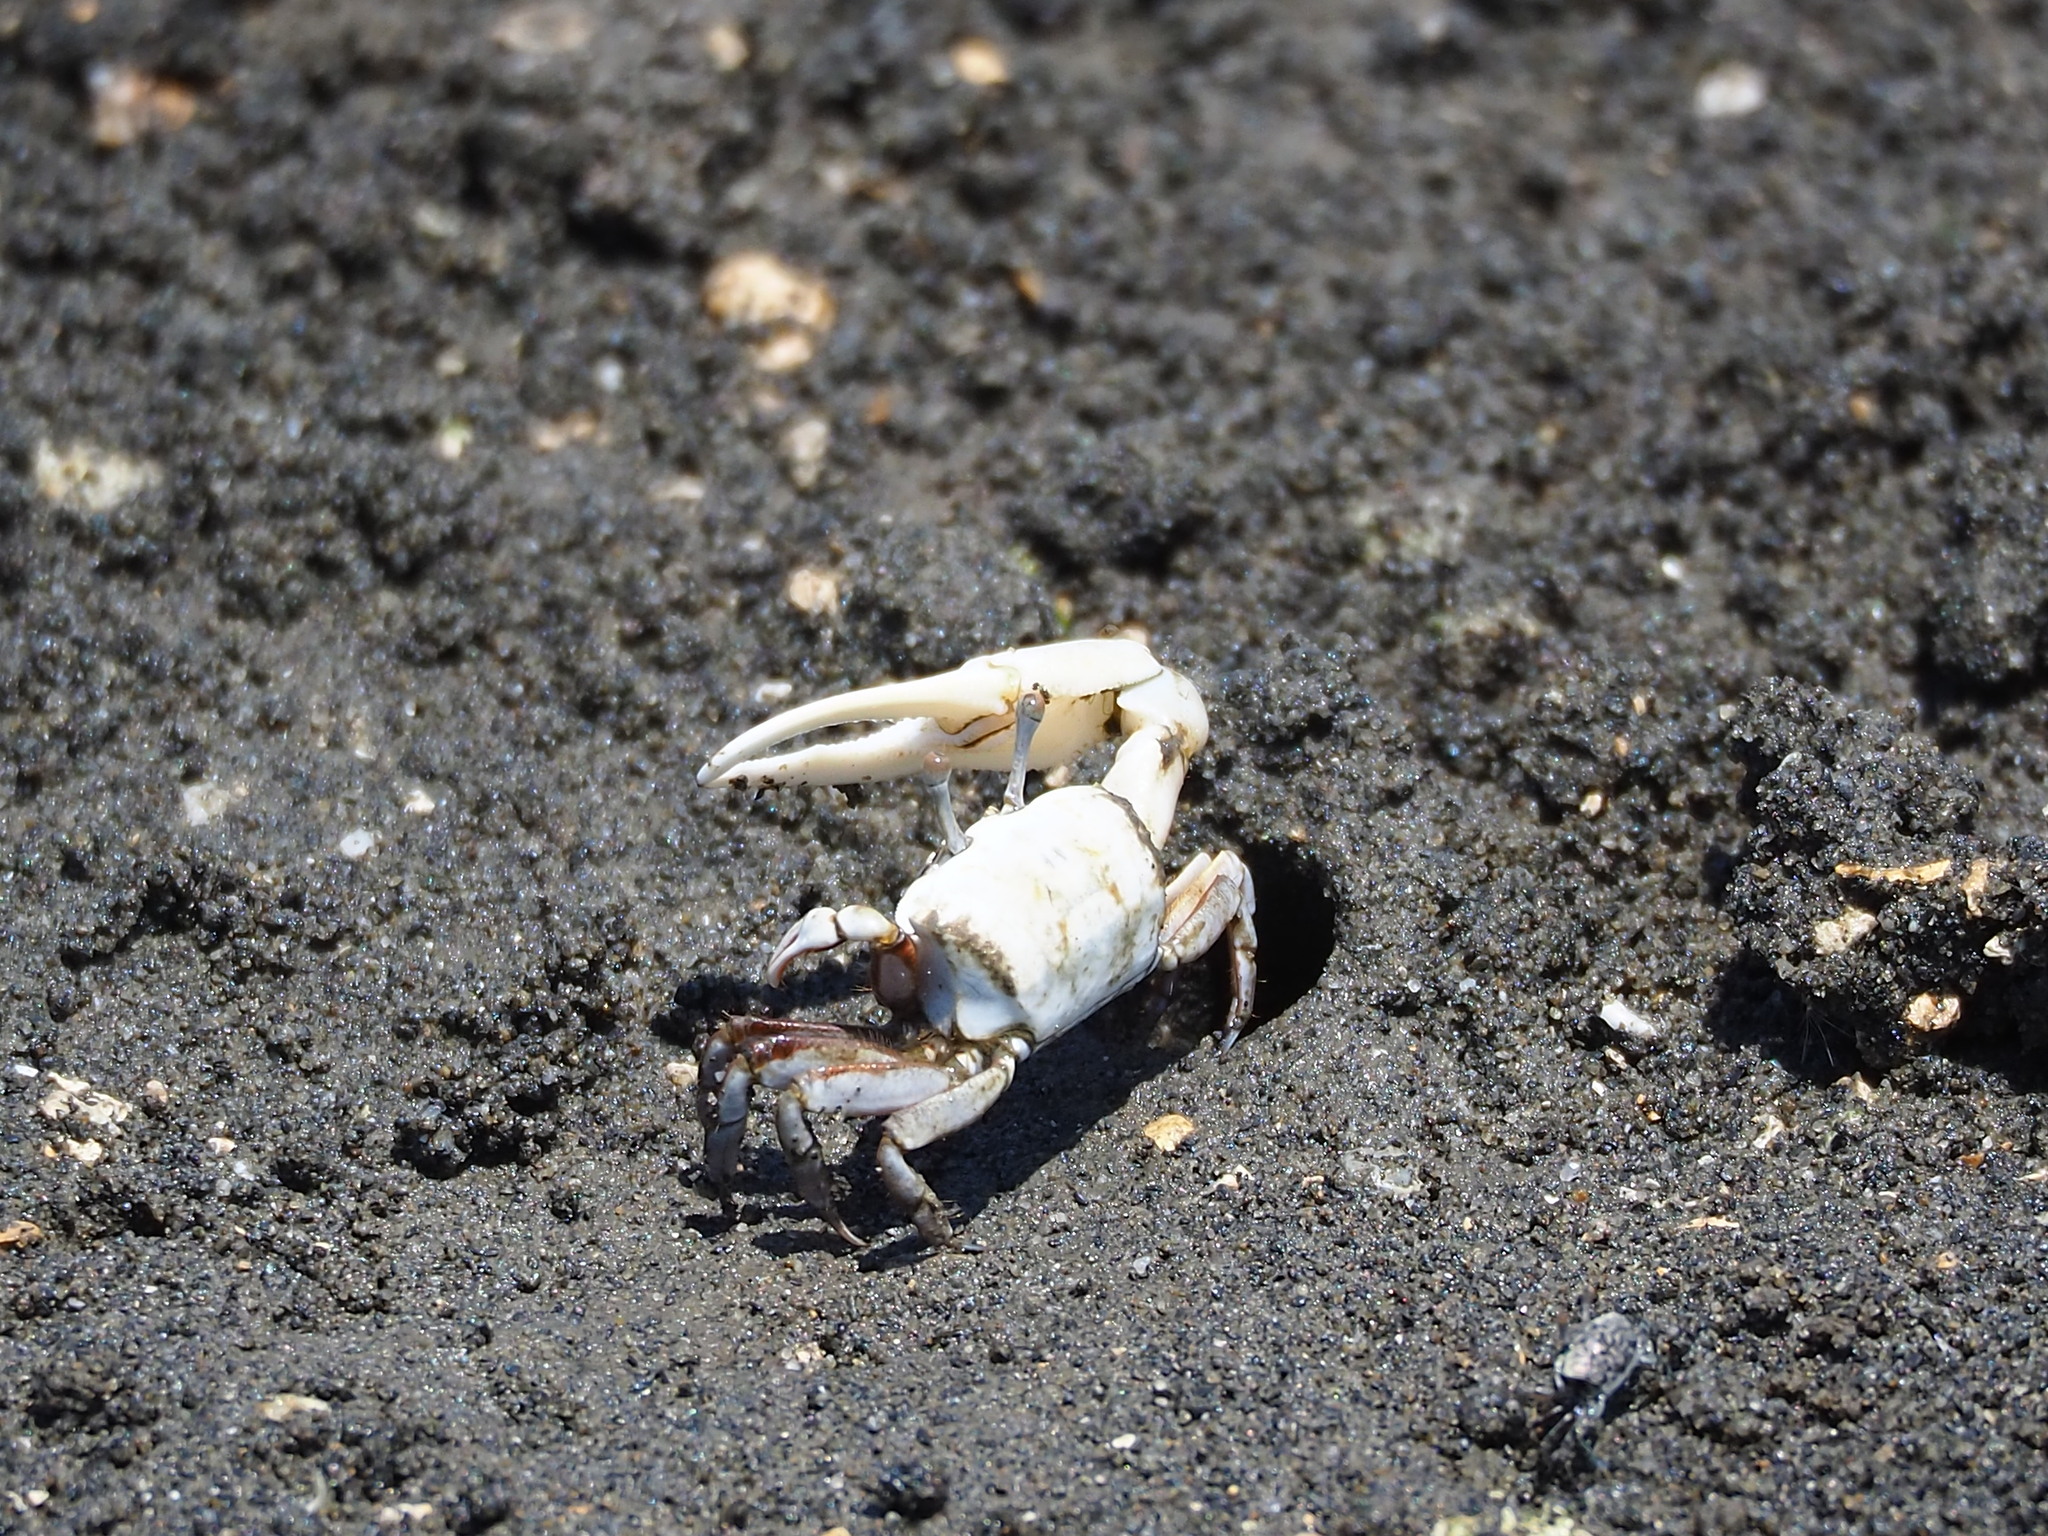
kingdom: Animalia
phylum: Arthropoda
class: Malacostraca
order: Decapoda
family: Ocypodidae
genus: Austruca
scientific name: Austruca lactea
